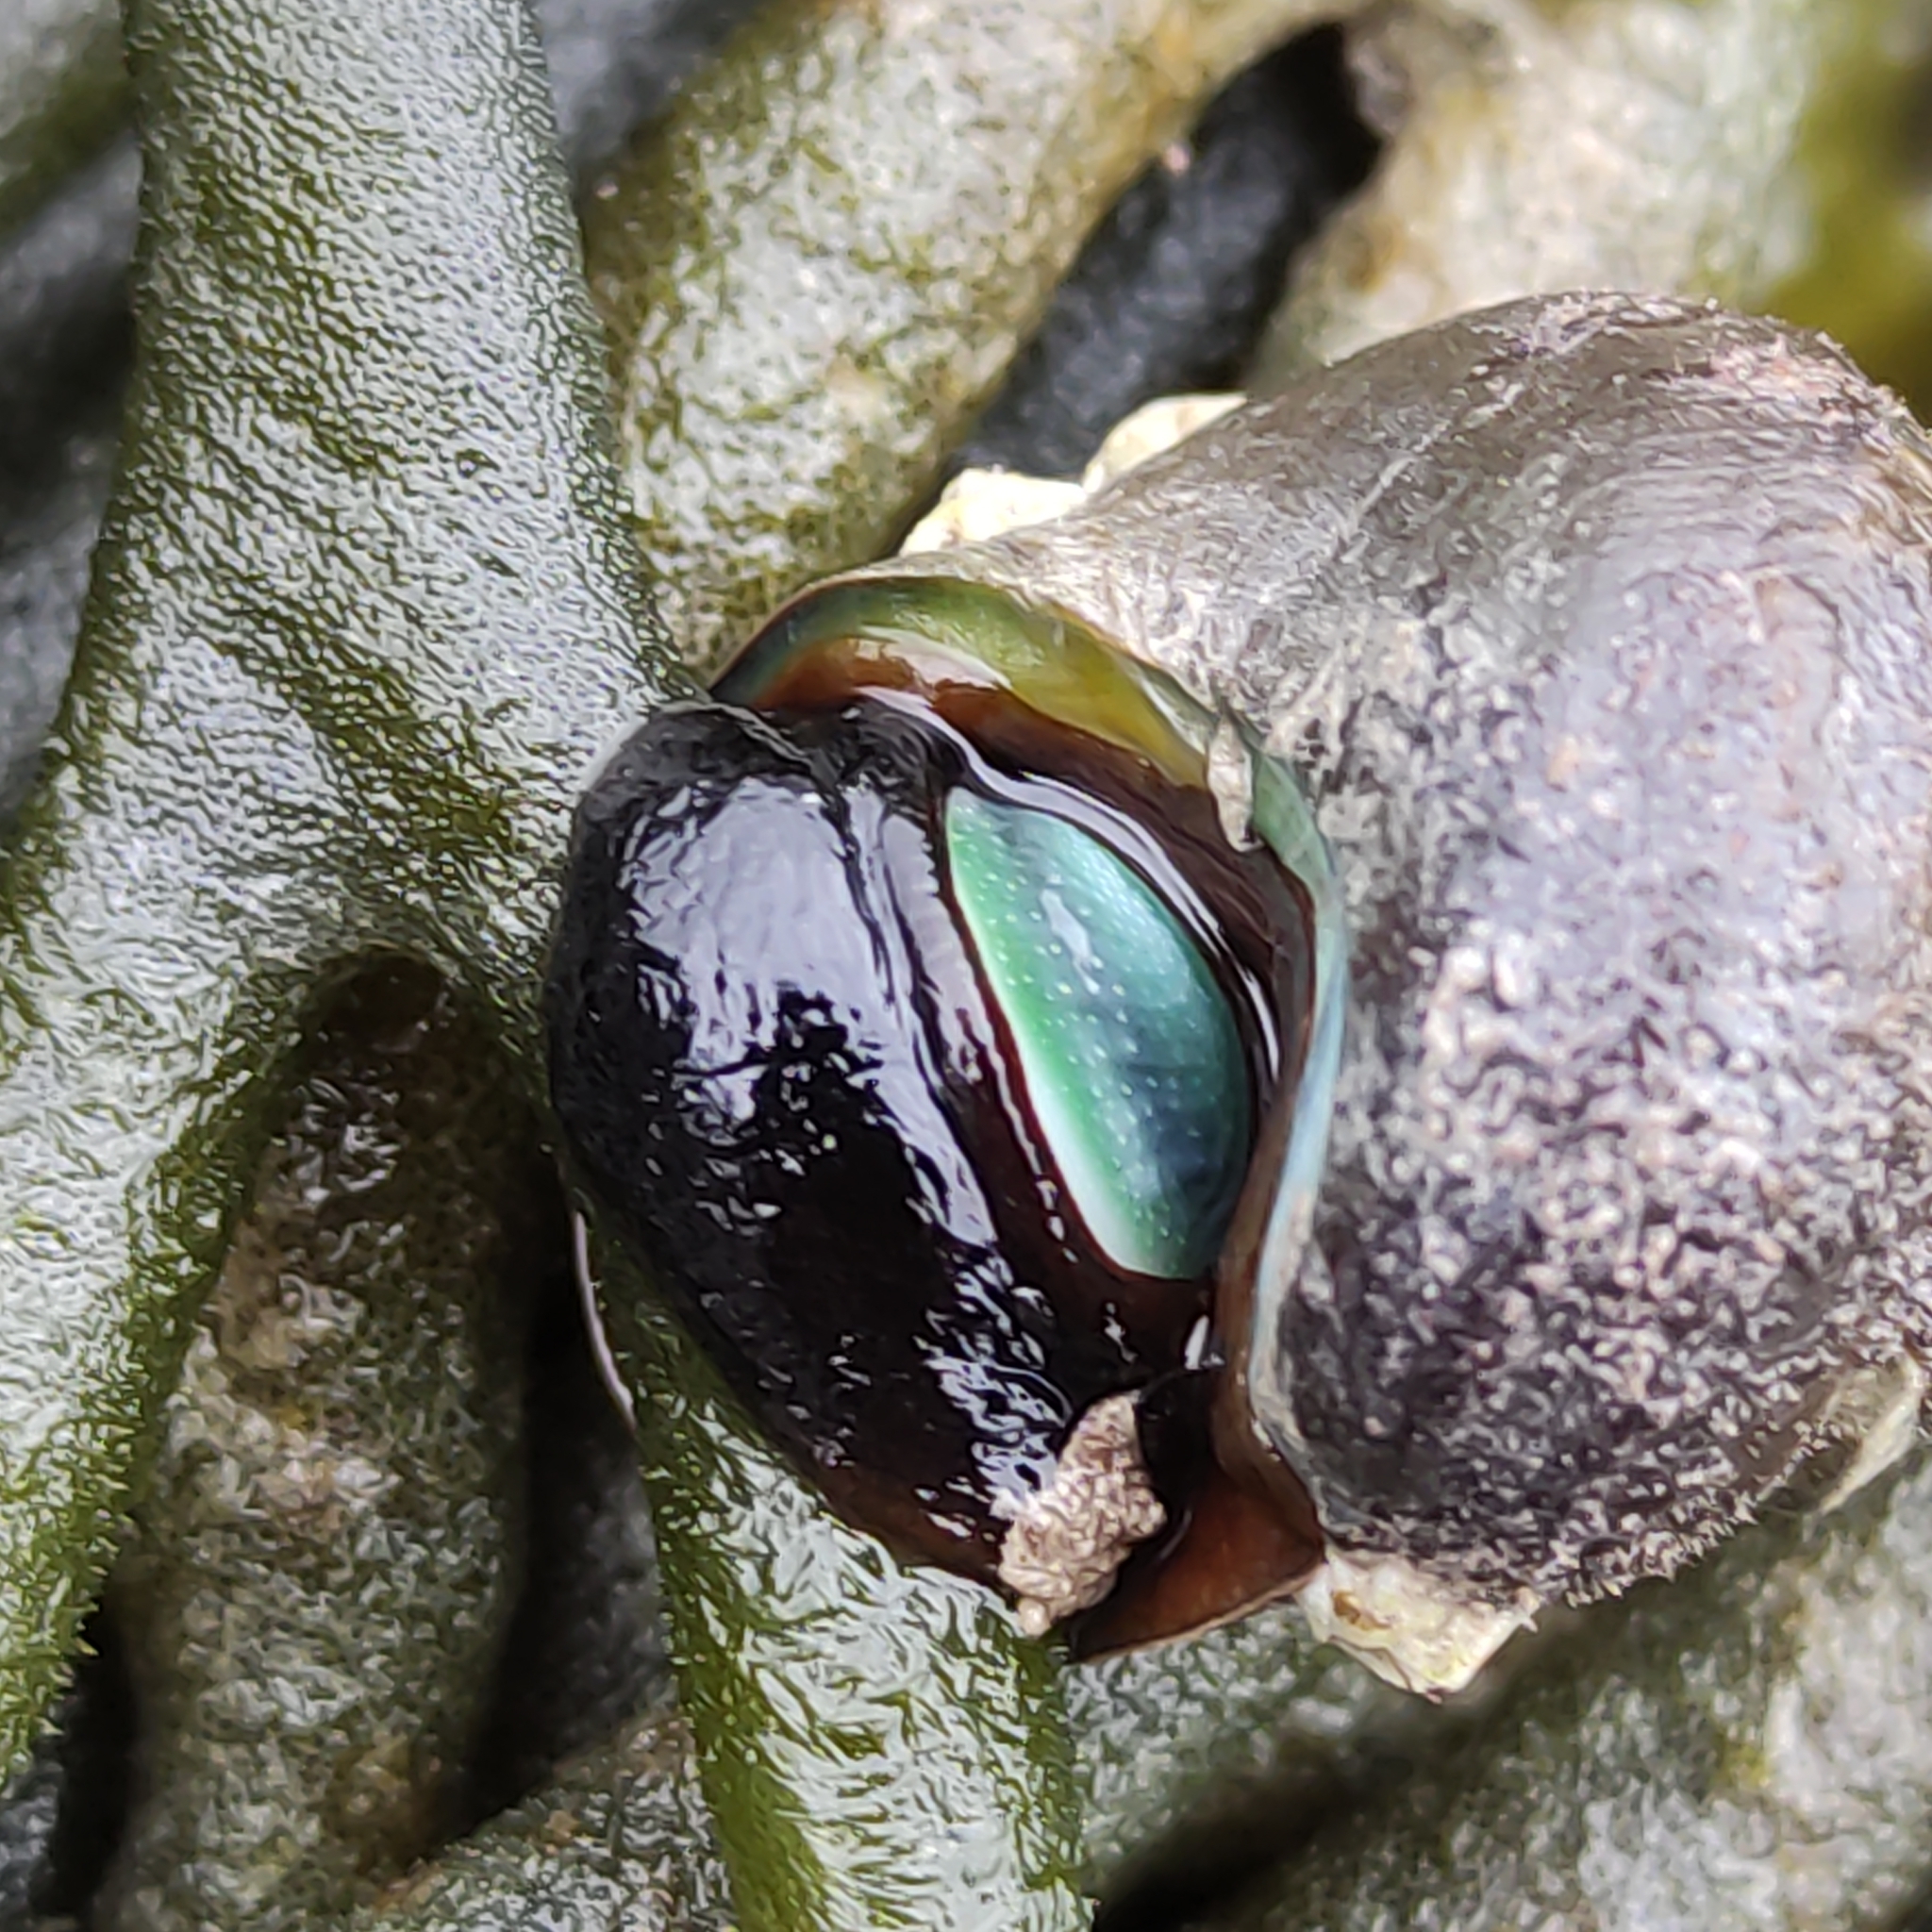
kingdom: Animalia
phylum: Mollusca
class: Gastropoda
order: Trochida
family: Turbinidae
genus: Lunella
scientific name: Lunella smaragda
